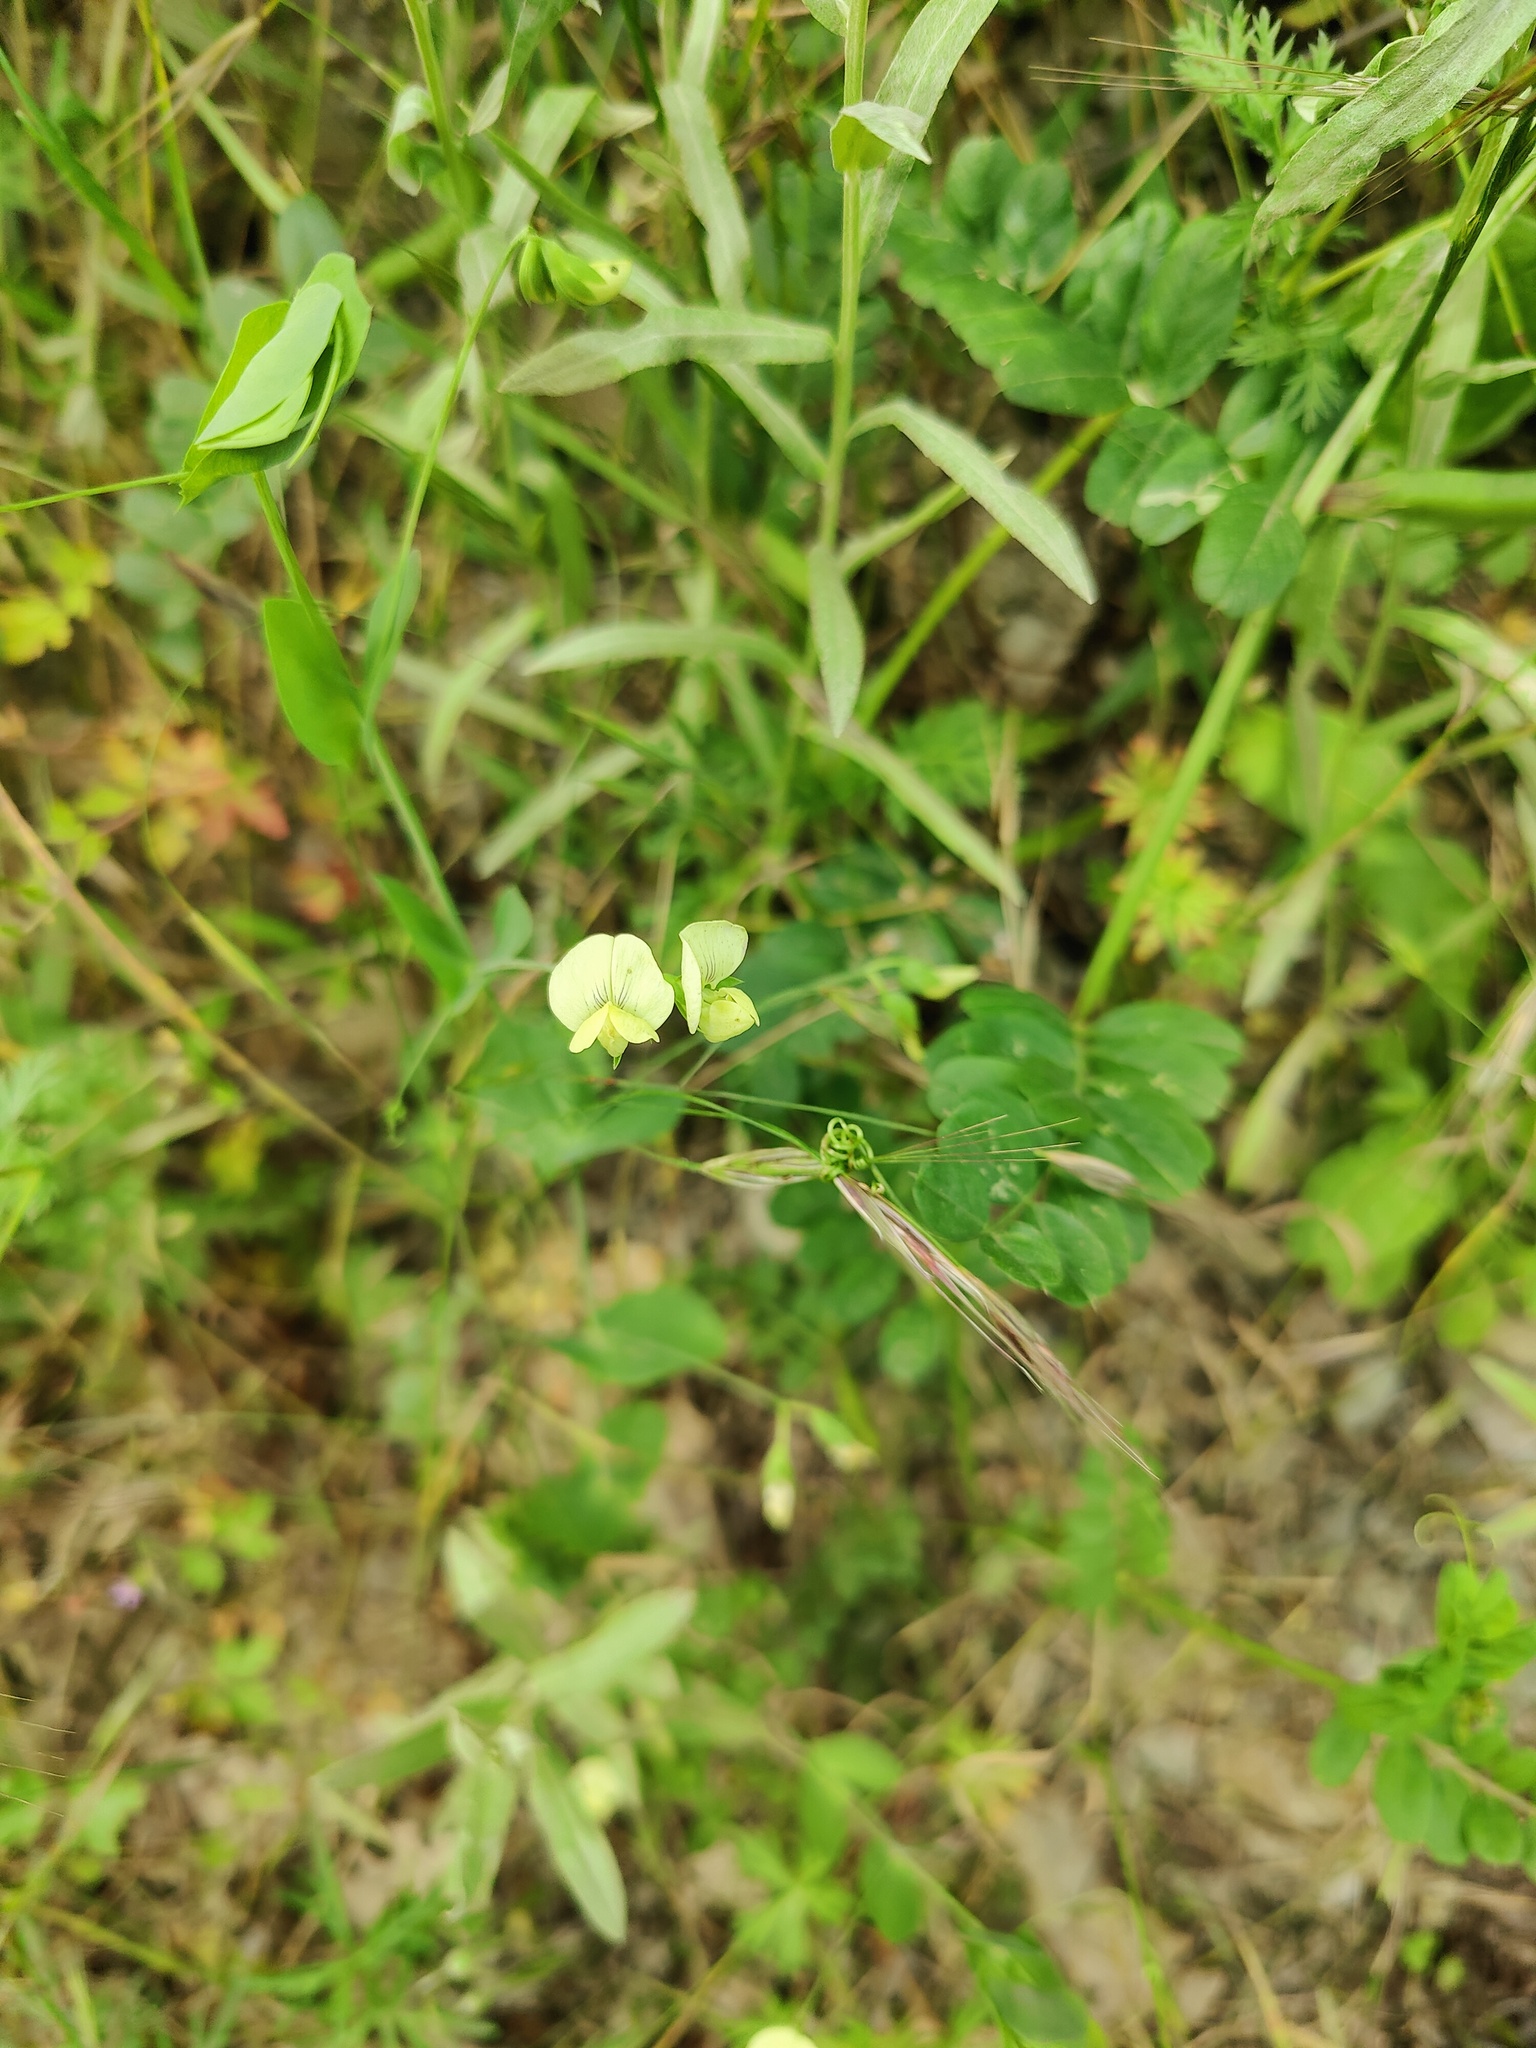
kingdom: Plantae
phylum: Tracheophyta
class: Magnoliopsida
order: Fabales
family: Fabaceae
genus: Lathyrus
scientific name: Lathyrus aphaca
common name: Yellow vetchling
